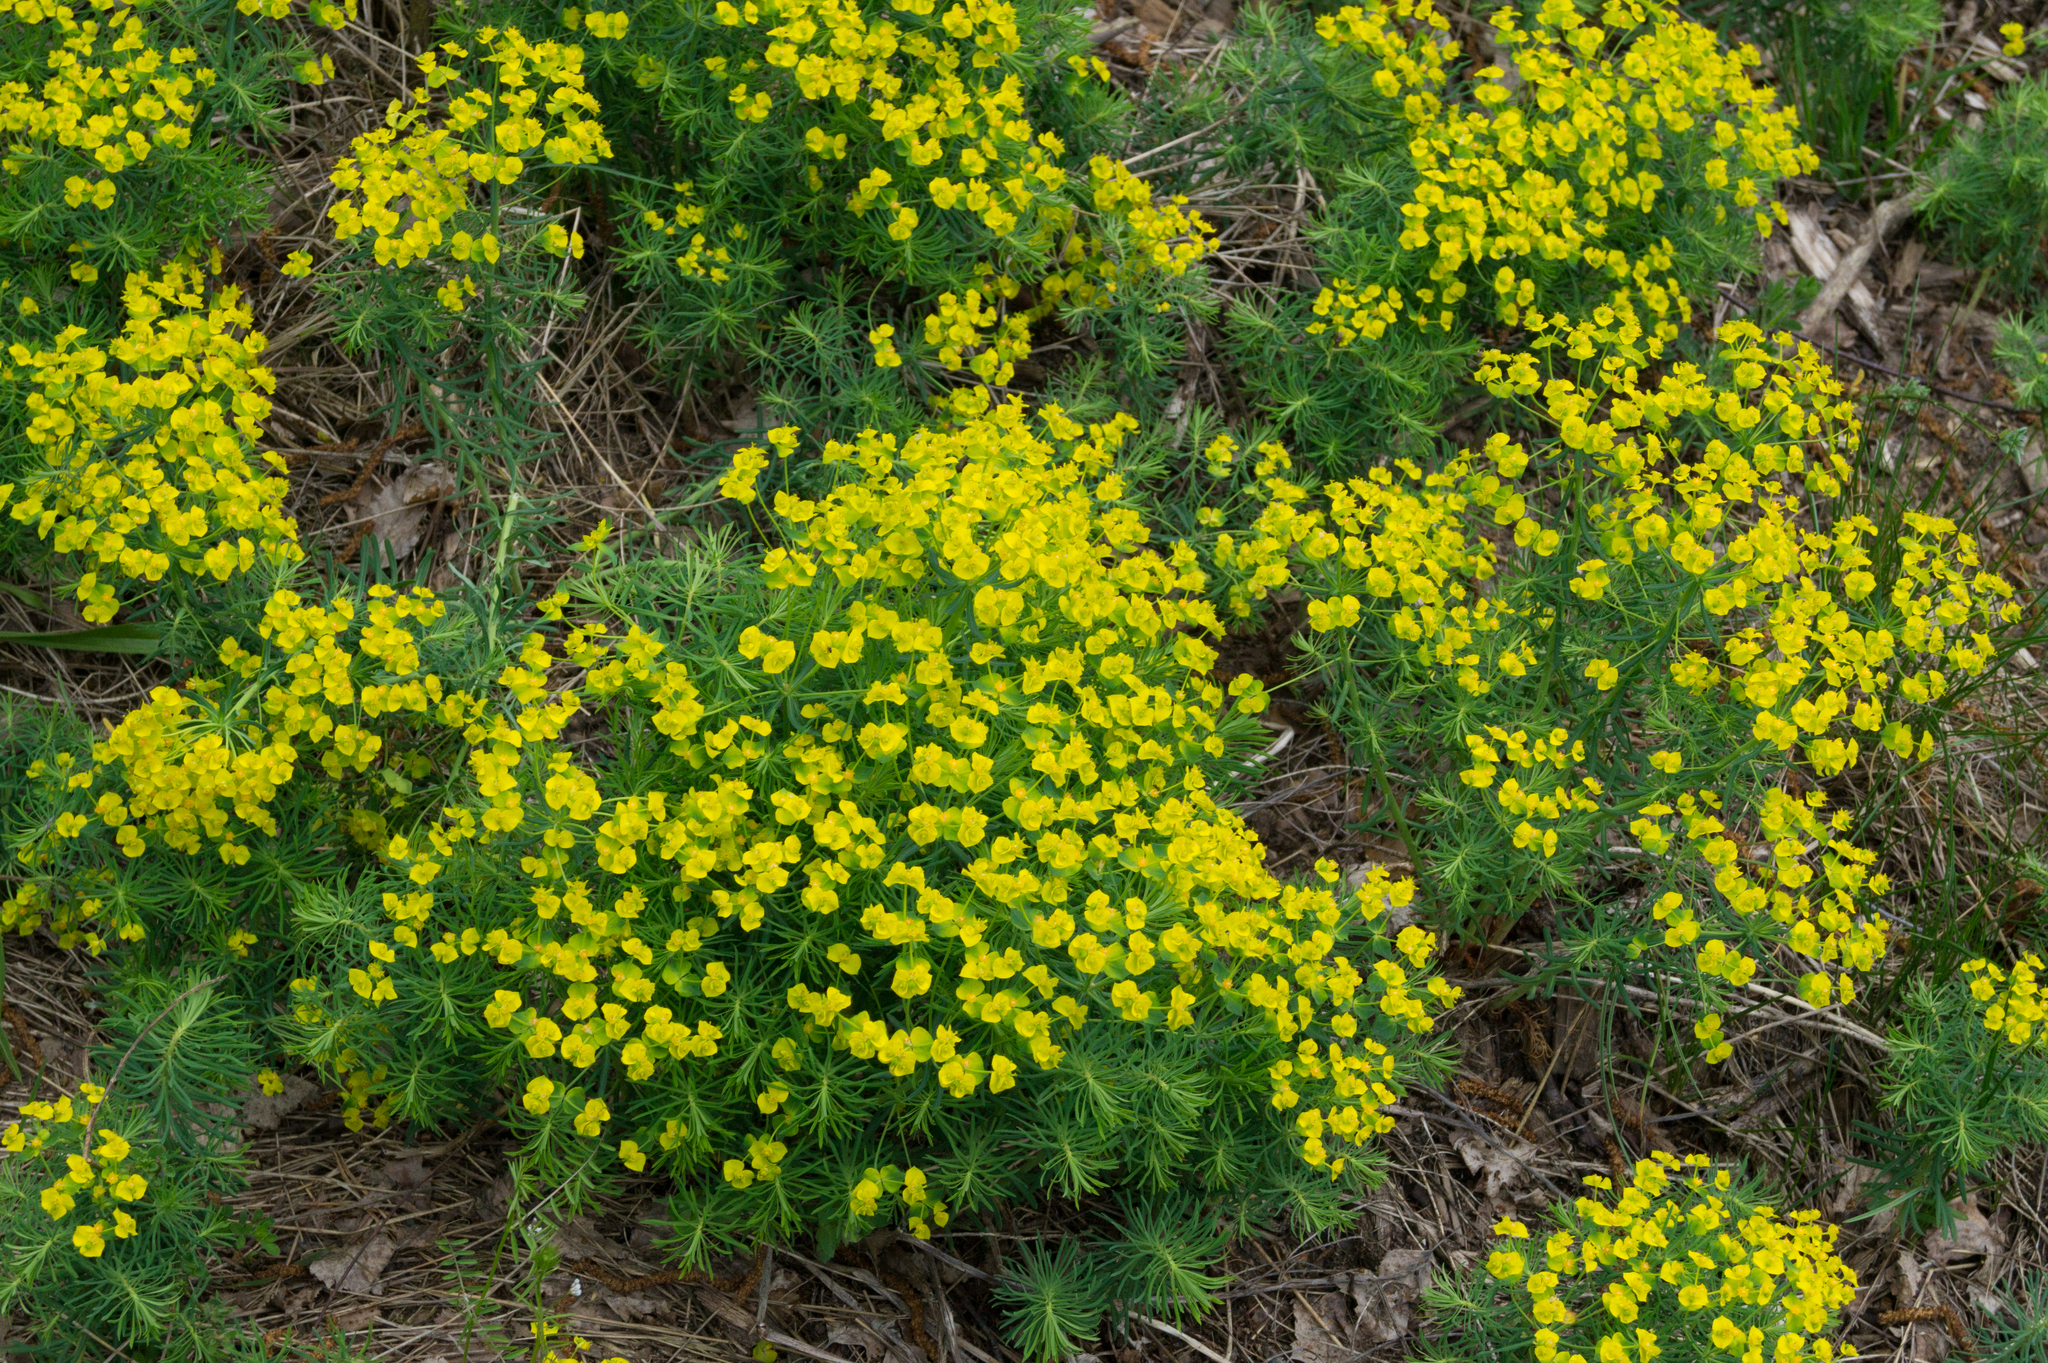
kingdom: Plantae
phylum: Tracheophyta
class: Magnoliopsida
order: Malpighiales
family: Euphorbiaceae
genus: Euphorbia
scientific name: Euphorbia cyparissias
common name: Cypress spurge
